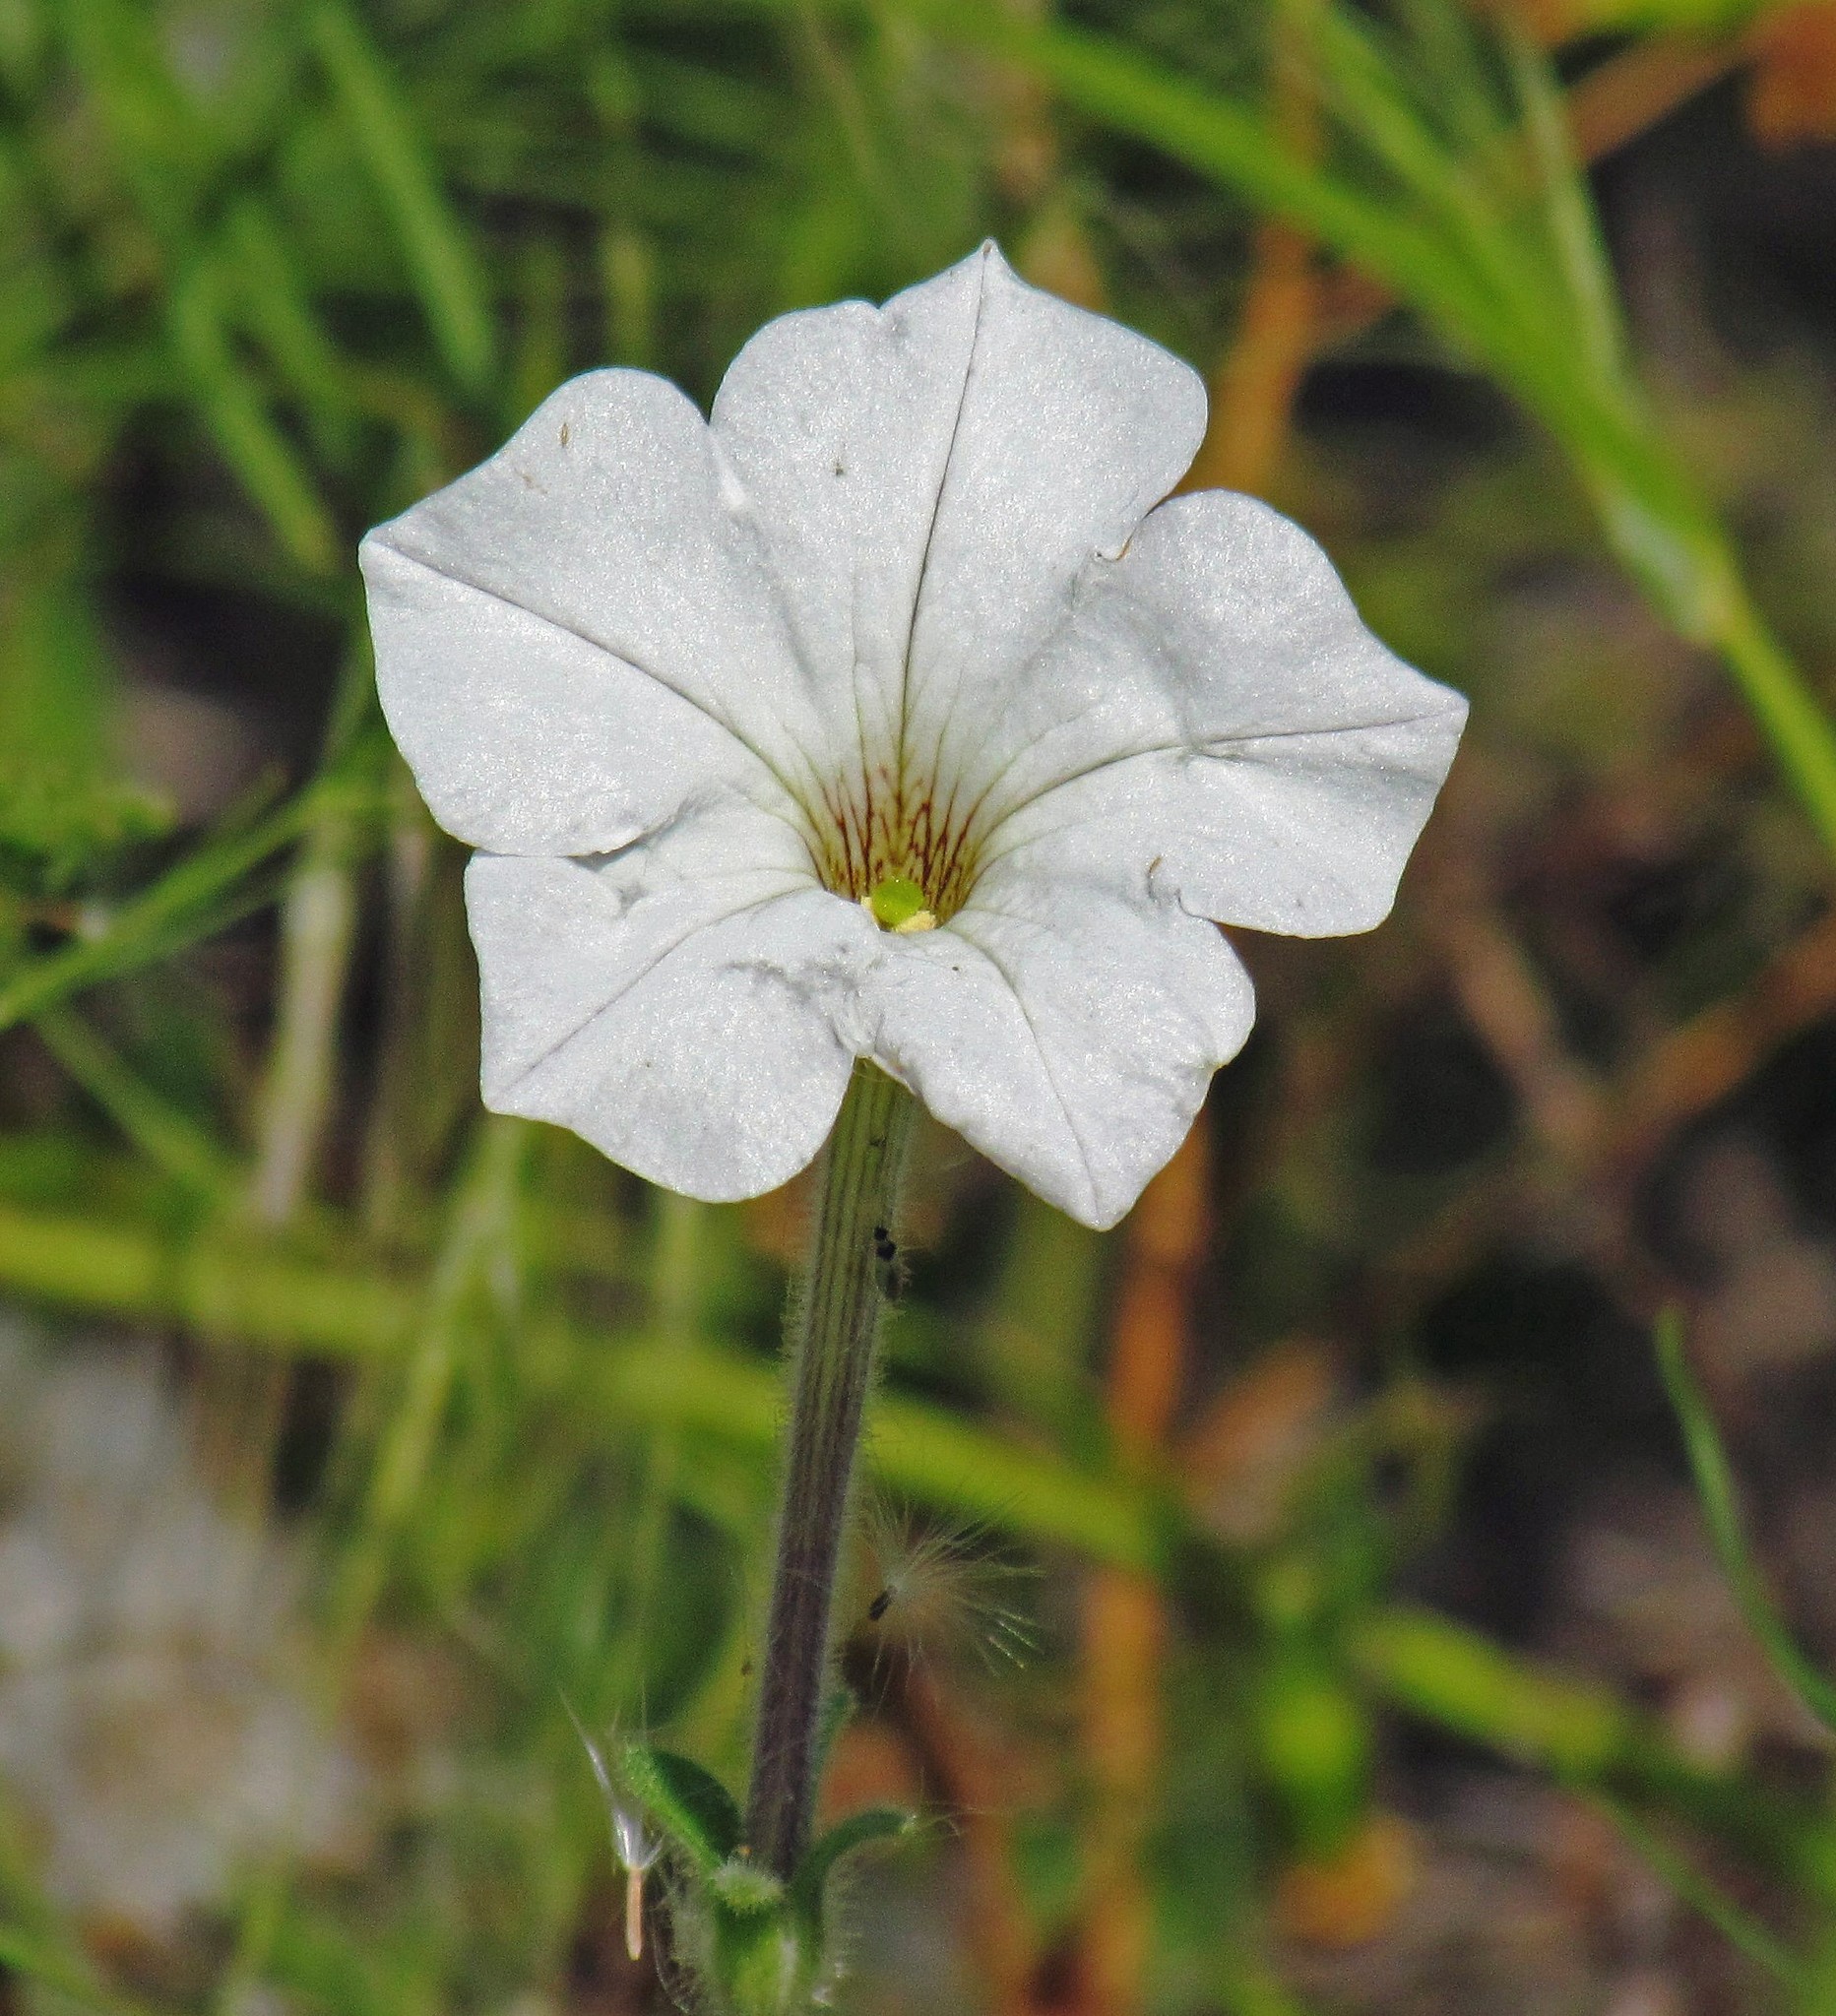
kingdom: Plantae
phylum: Tracheophyta
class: Magnoliopsida
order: Solanales
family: Solanaceae
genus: Petunia
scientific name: Petunia axillaris
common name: Large white petunia
